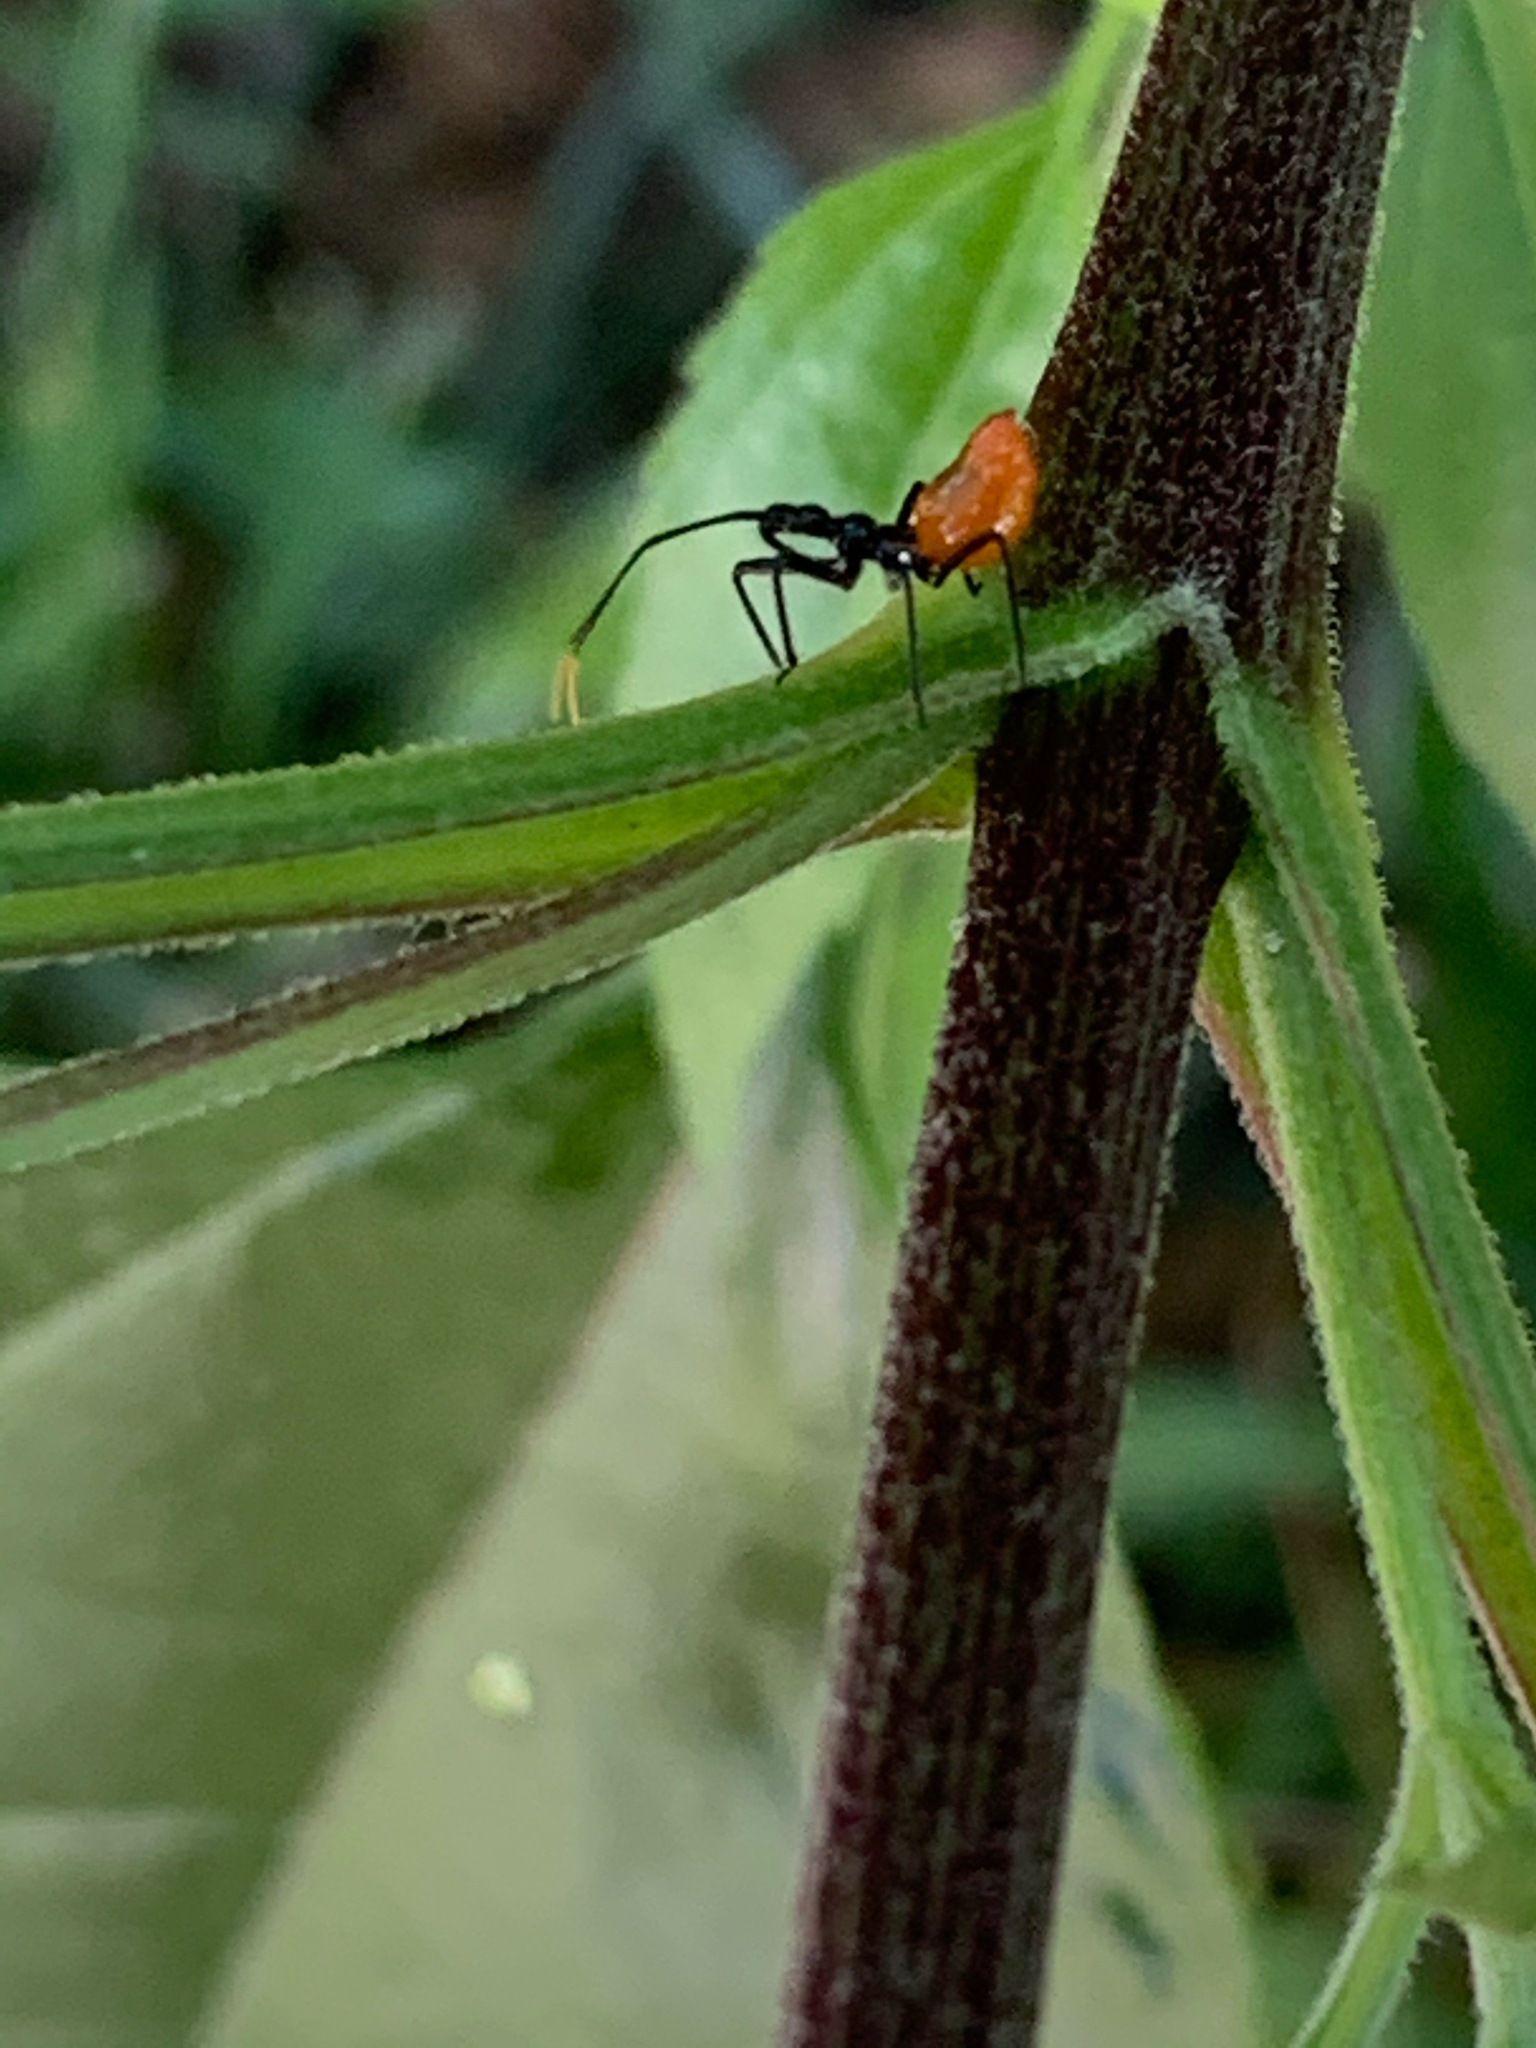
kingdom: Animalia
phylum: Arthropoda
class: Insecta
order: Hemiptera
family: Reduviidae
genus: Arilus
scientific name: Arilus cristatus
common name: North american wheel bug
